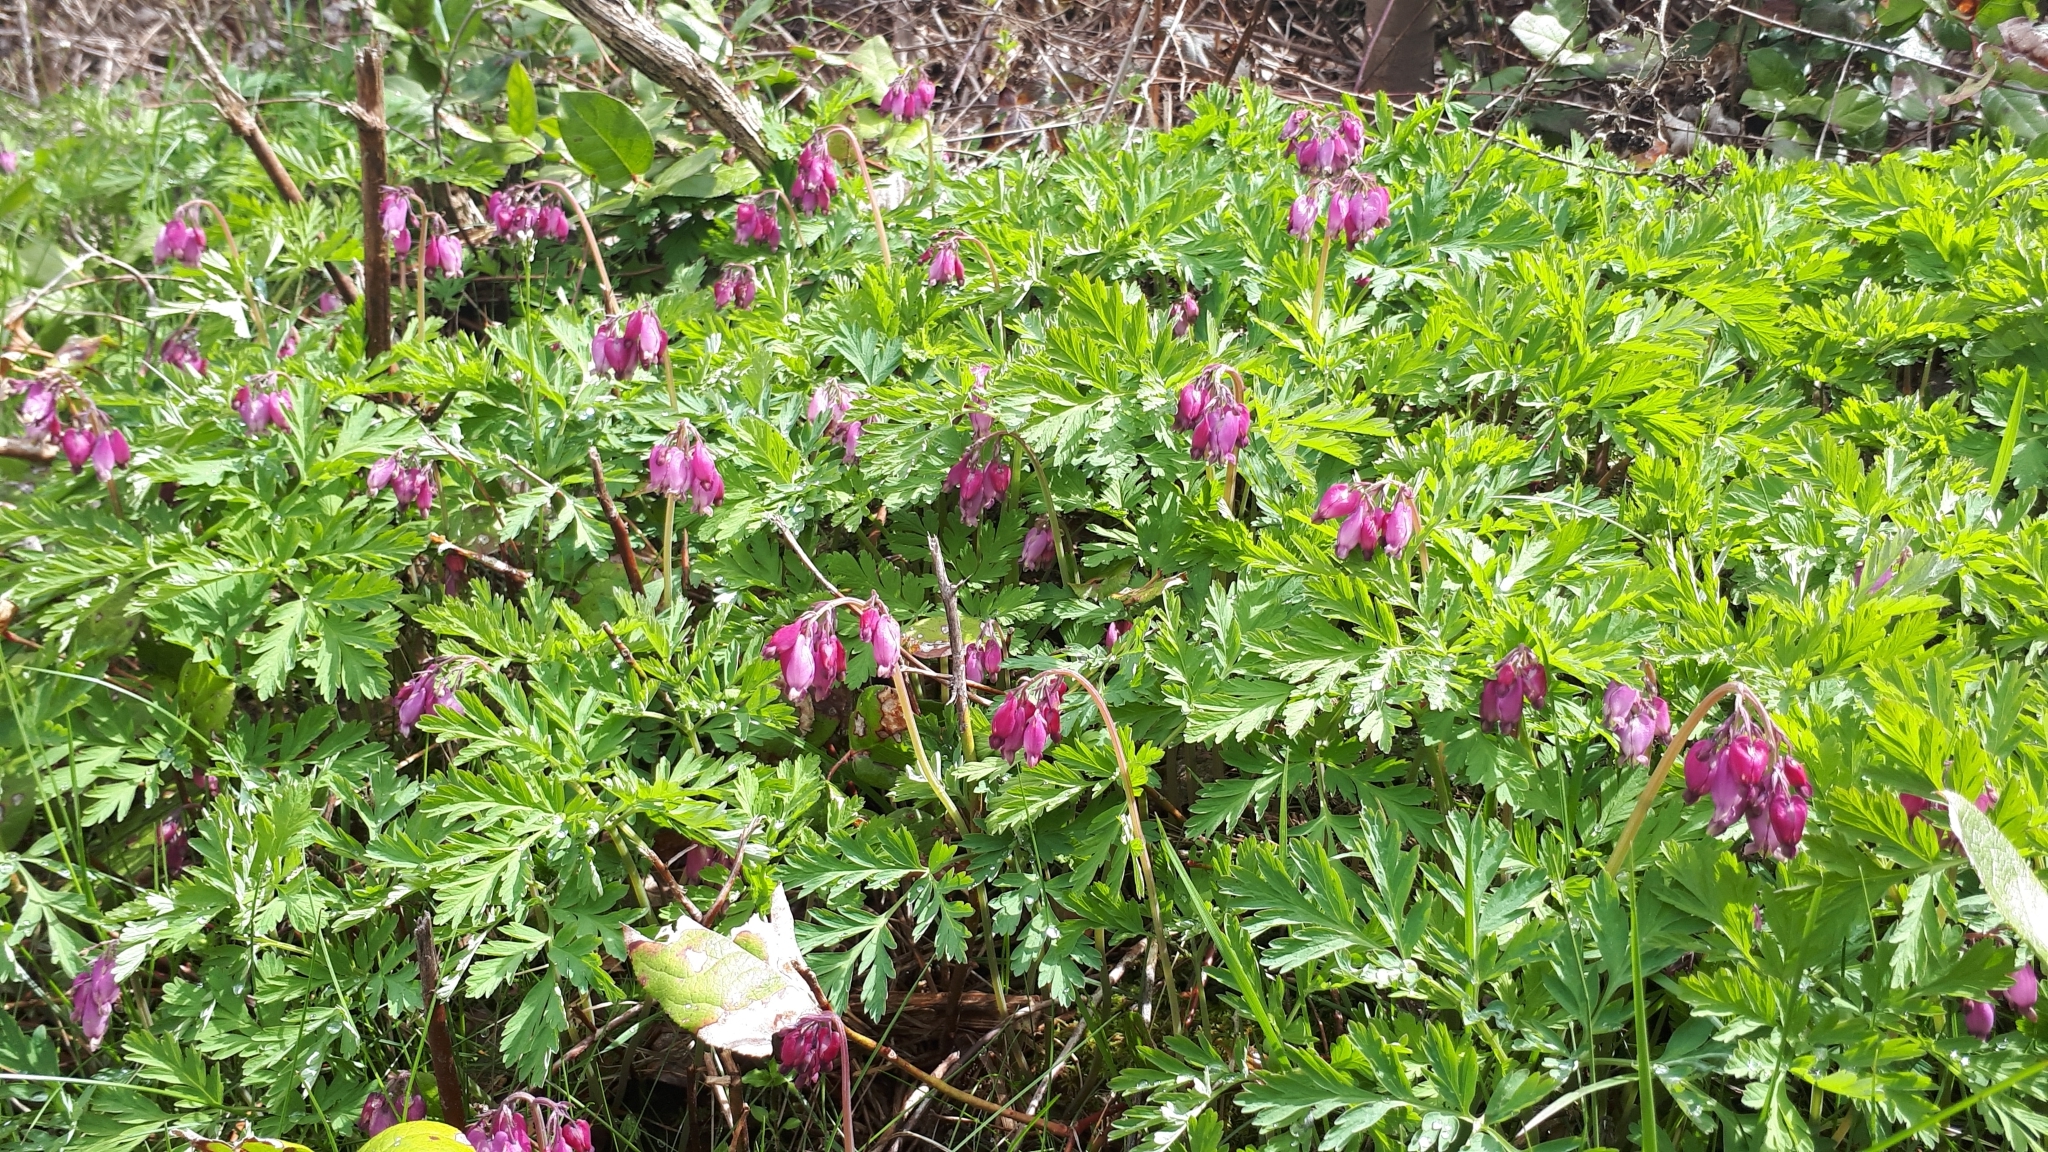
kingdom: Plantae
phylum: Tracheophyta
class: Magnoliopsida
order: Ranunculales
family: Papaveraceae
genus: Dicentra
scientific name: Dicentra formosa
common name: Bleeding-heart
